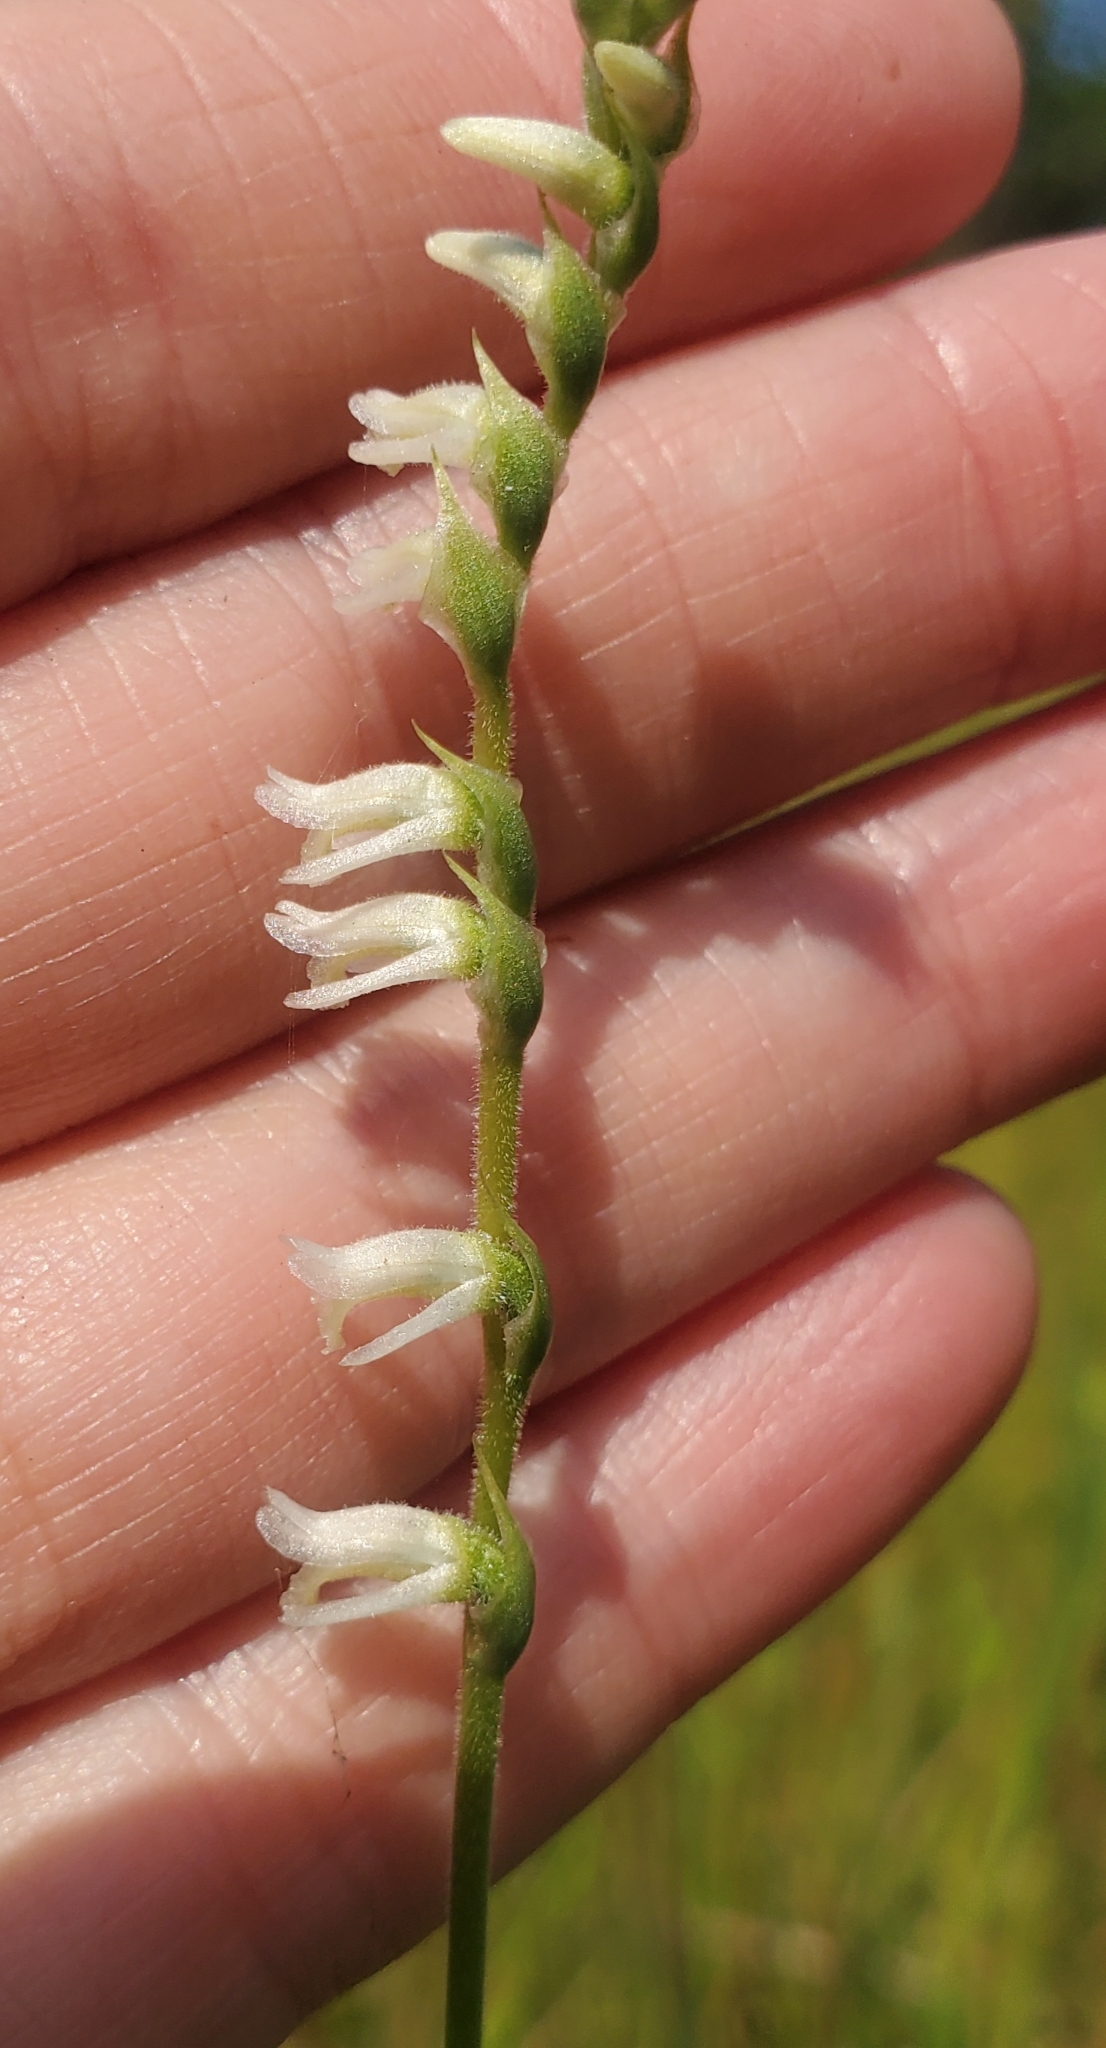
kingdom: Plantae
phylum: Tracheophyta
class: Liliopsida
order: Asparagales
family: Orchidaceae
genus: Spiranthes
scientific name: Spiranthes vernalis
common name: Spring ladies'-tresses
